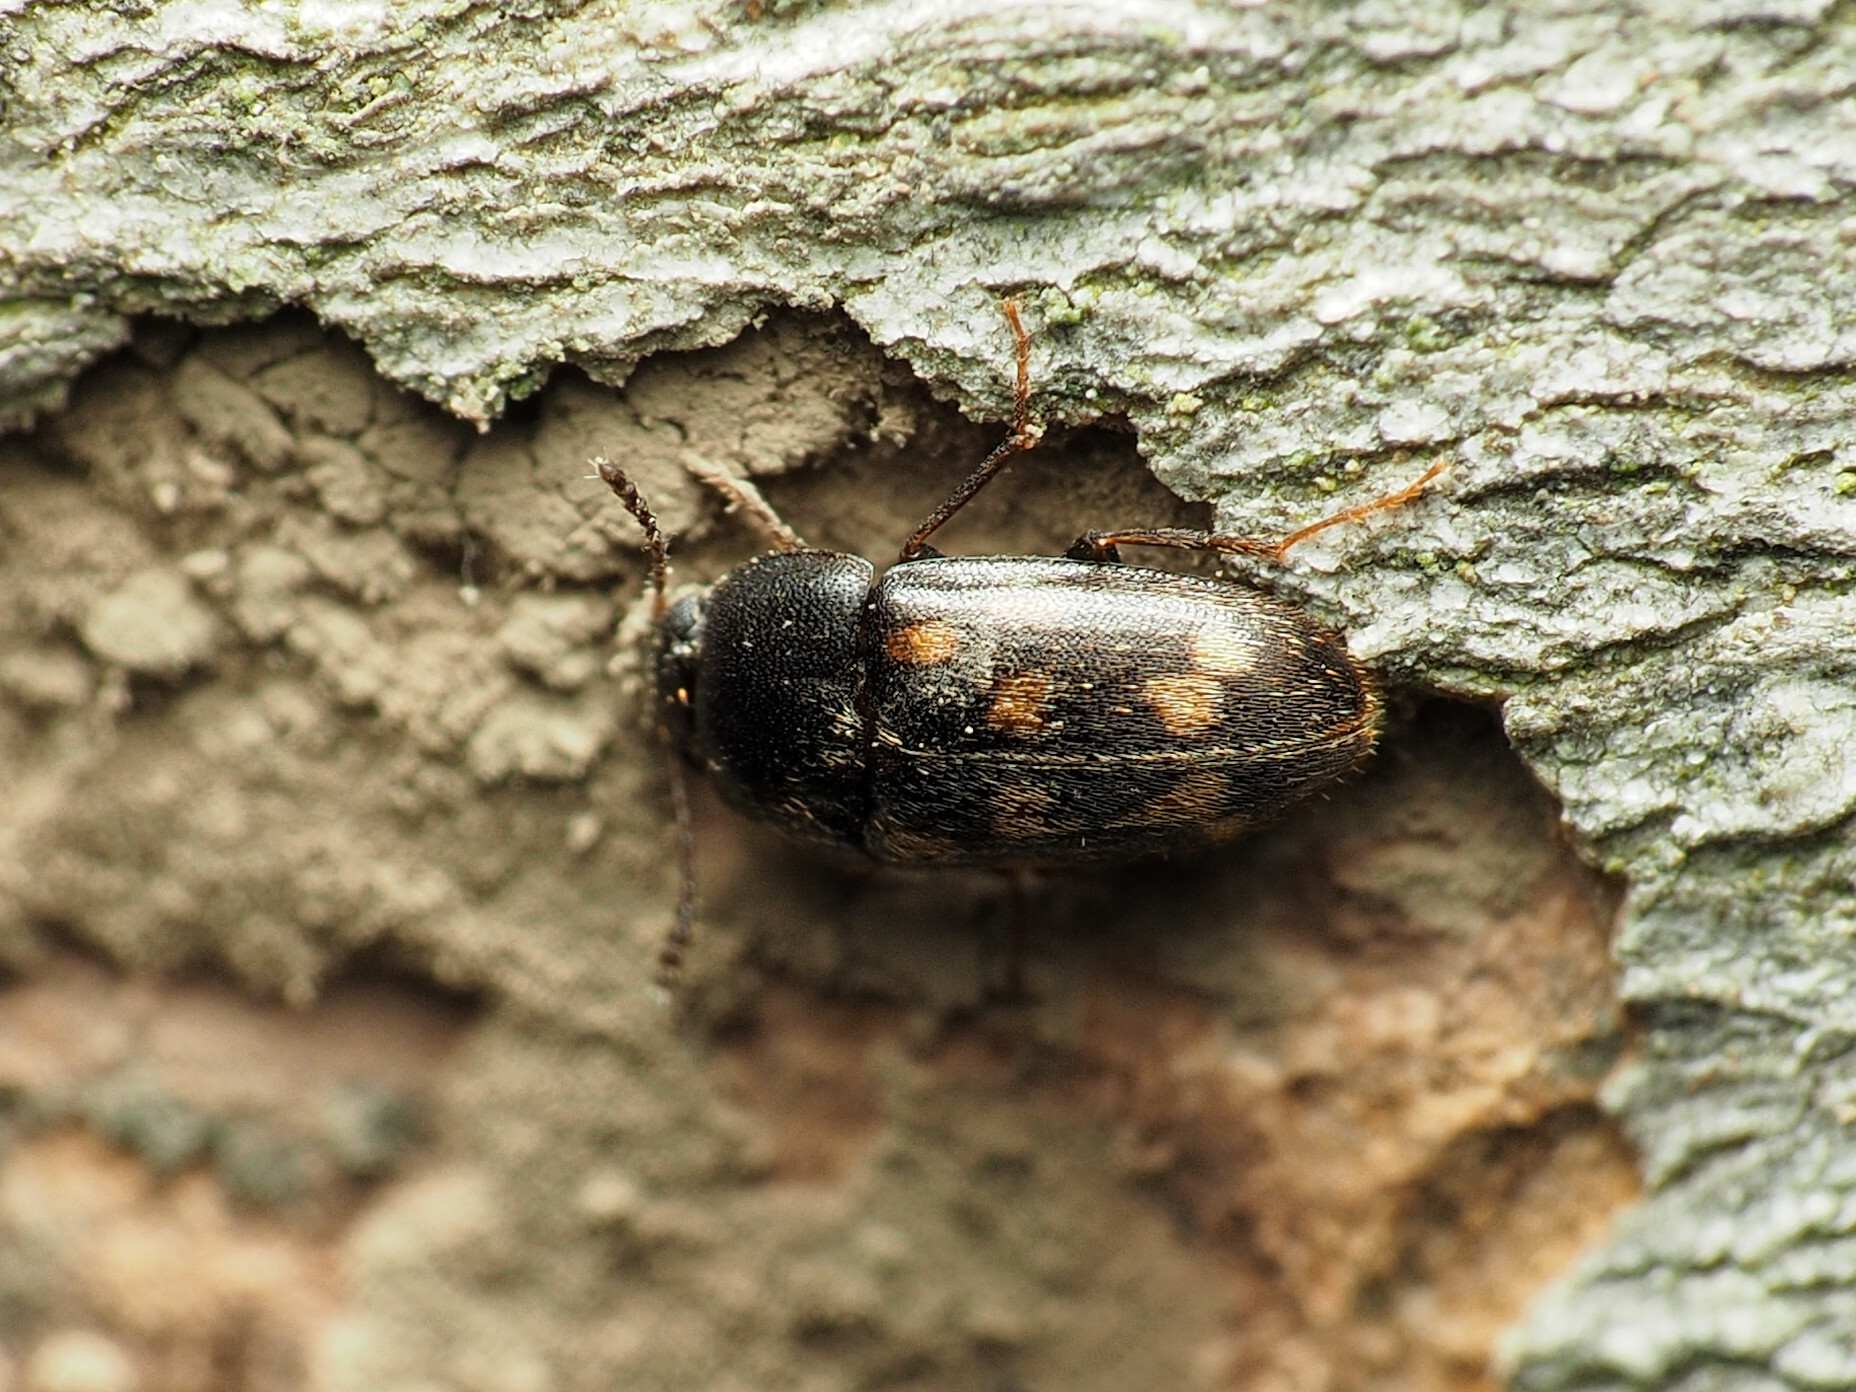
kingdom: Animalia
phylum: Arthropoda
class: Insecta
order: Coleoptera
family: Mycetophagidae
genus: Litargus
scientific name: Litargus sexpunctatus
